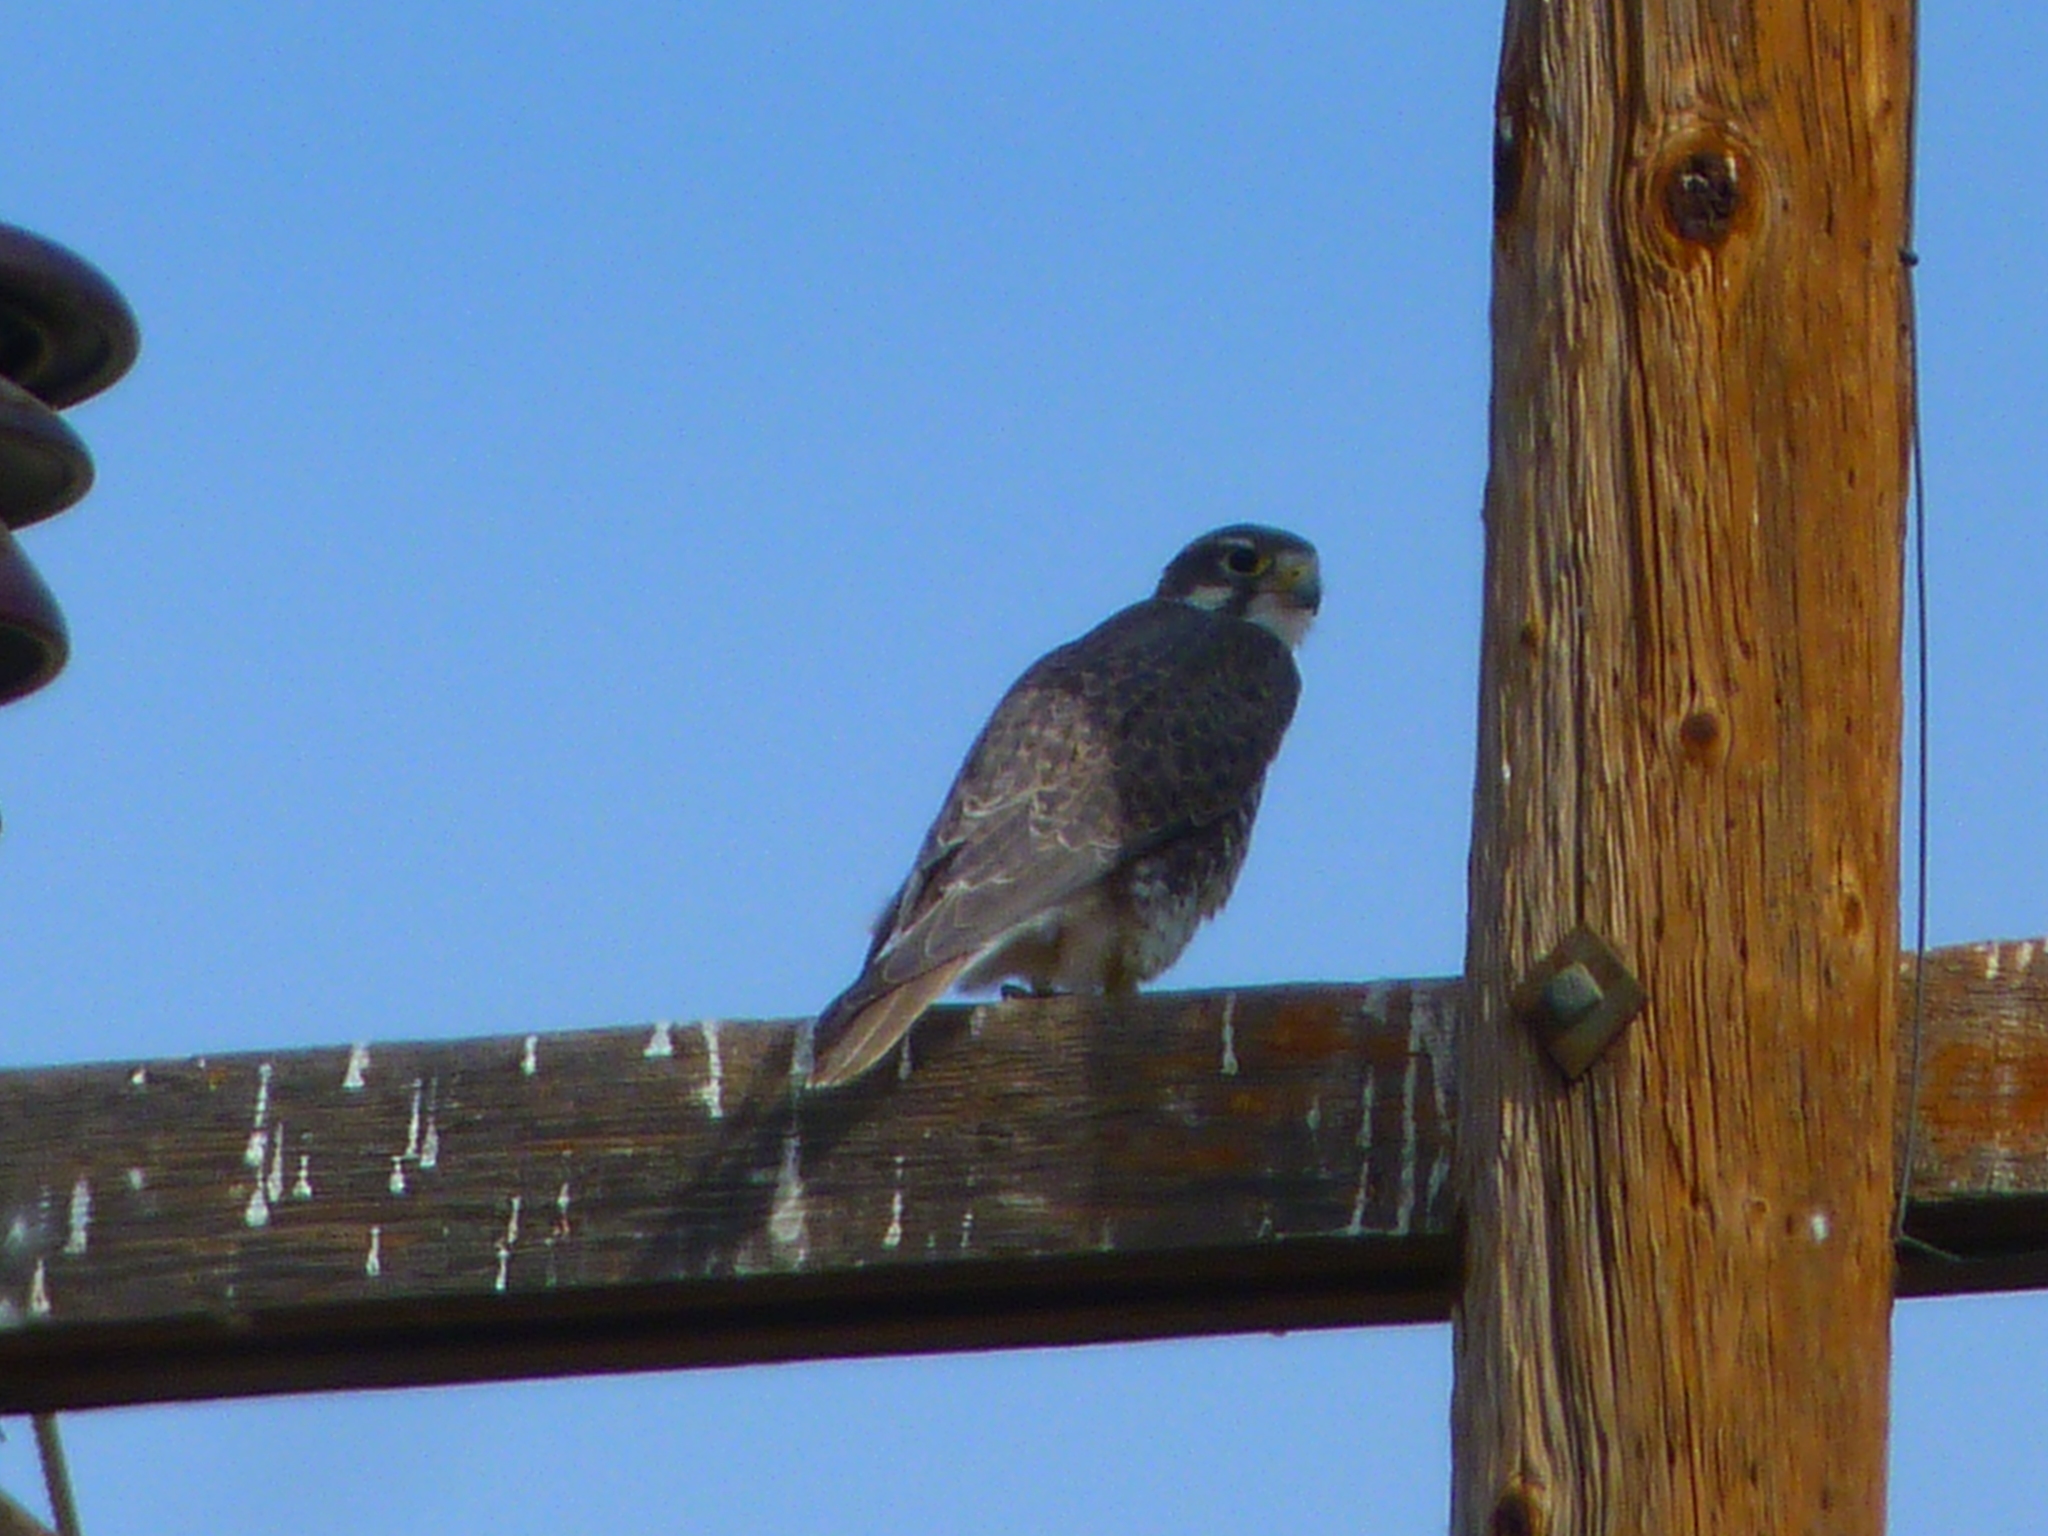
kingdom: Animalia
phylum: Chordata
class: Aves
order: Falconiformes
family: Falconidae
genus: Falco
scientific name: Falco mexicanus
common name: Prairie falcon
